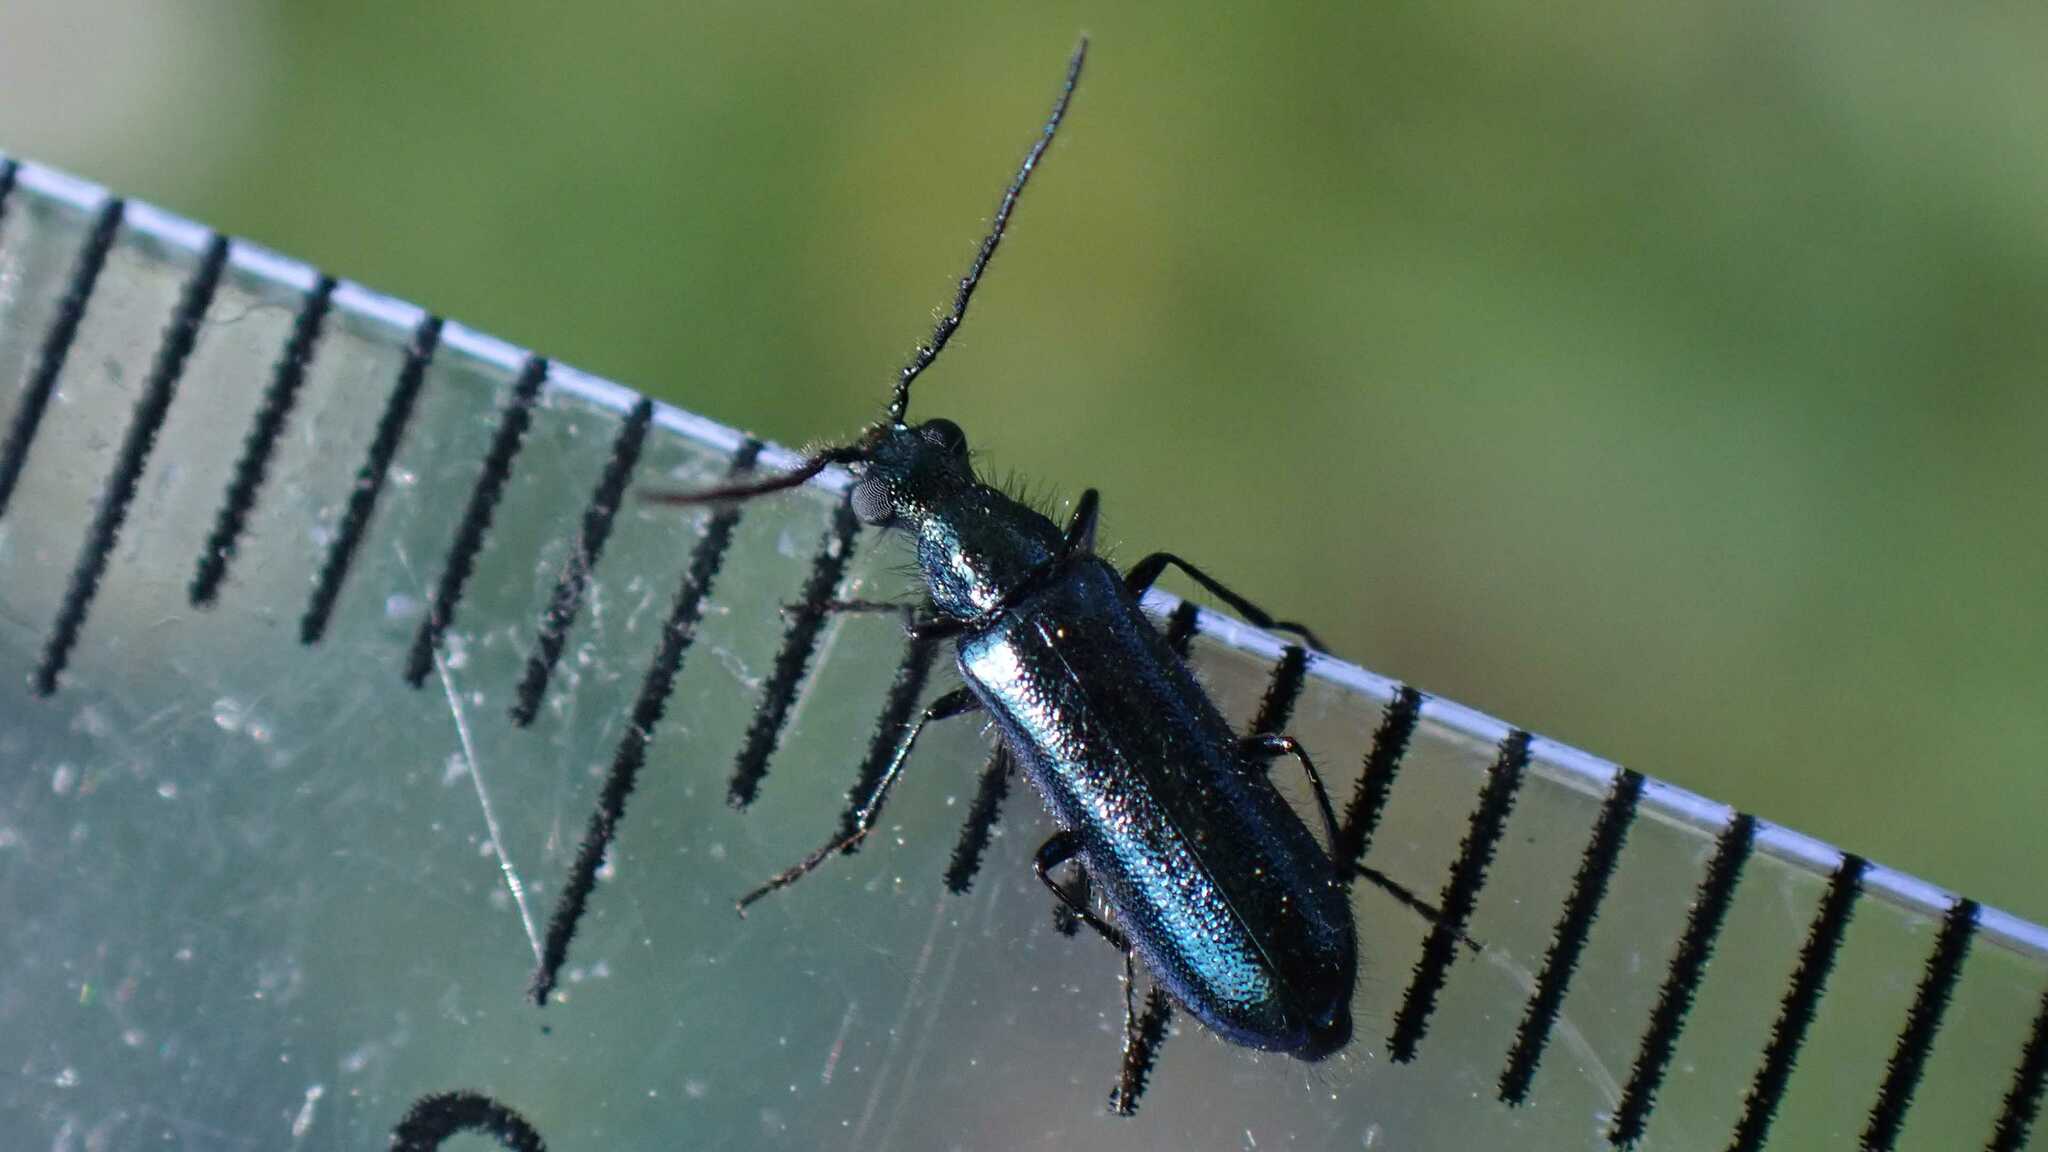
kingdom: Animalia
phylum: Arthropoda
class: Insecta
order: Coleoptera
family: Melyridae
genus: Dasytes
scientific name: Dasytes caeruleus
